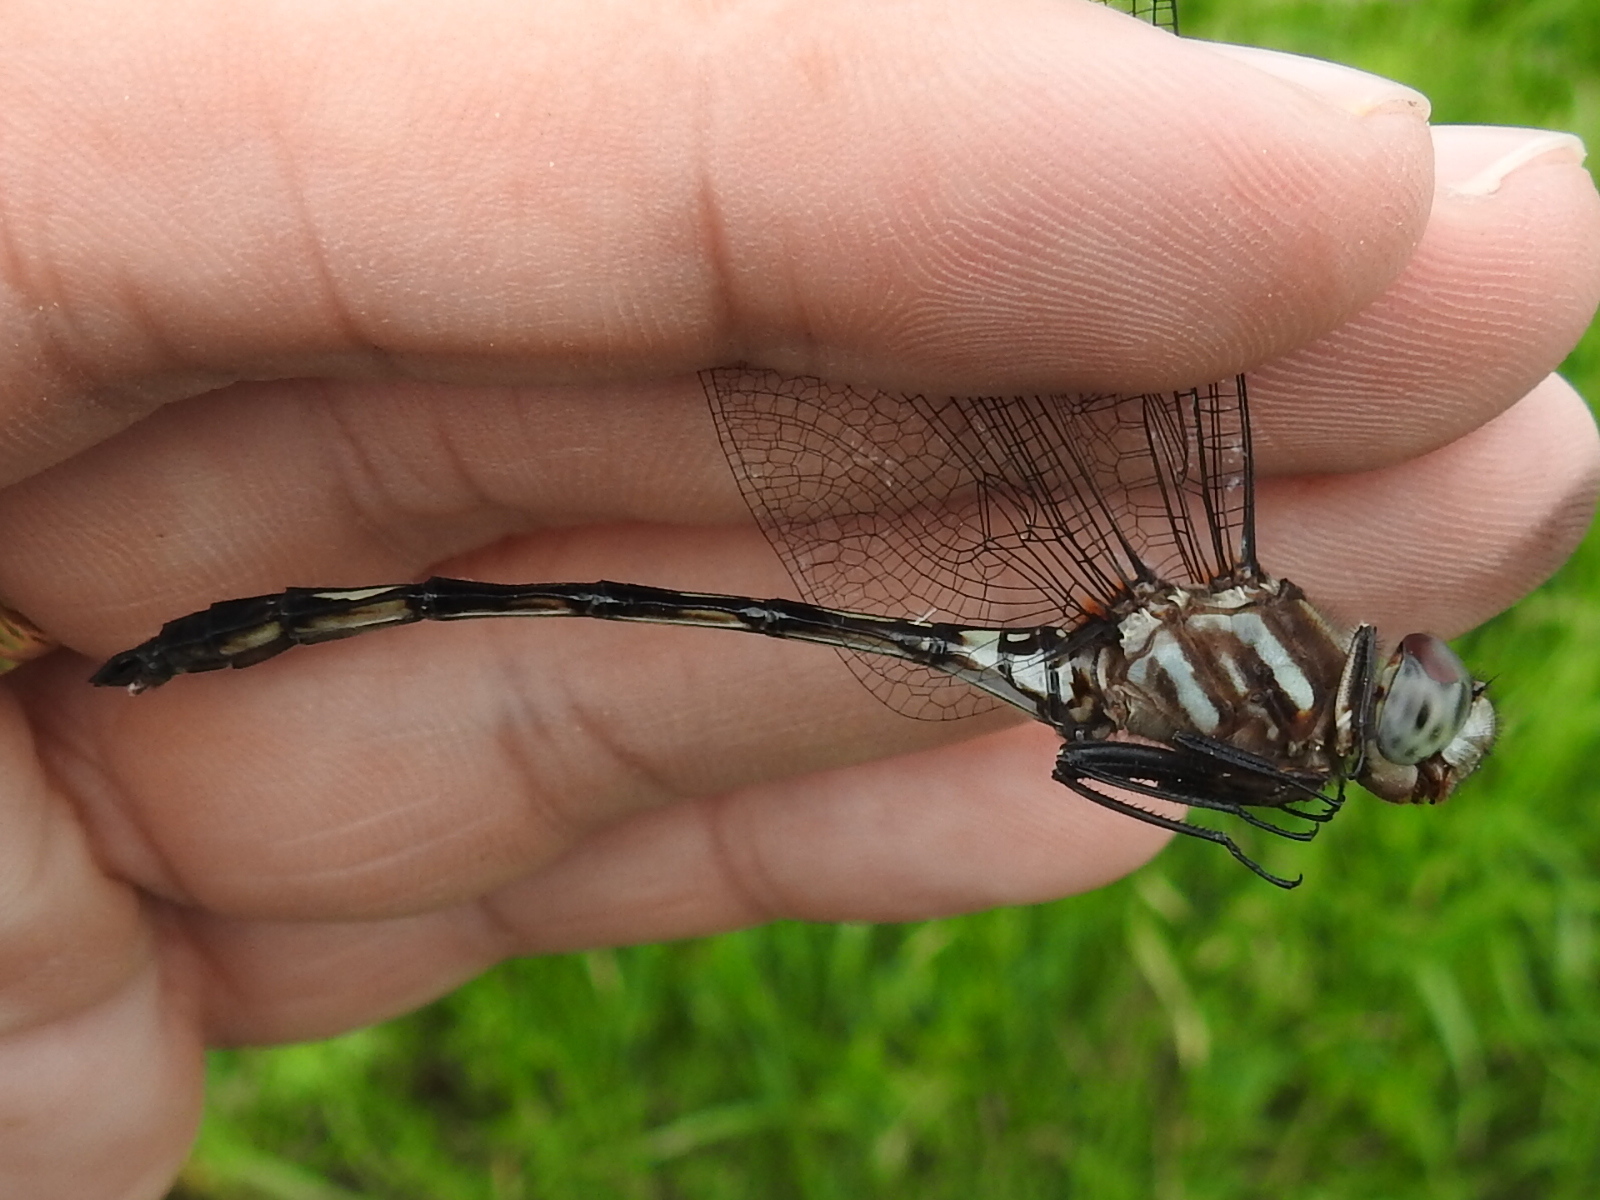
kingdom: Animalia
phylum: Arthropoda
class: Insecta
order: Odonata
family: Libellulidae
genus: Brechmorhoga
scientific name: Brechmorhoga mendax
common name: Pale-faced clubskimmer
